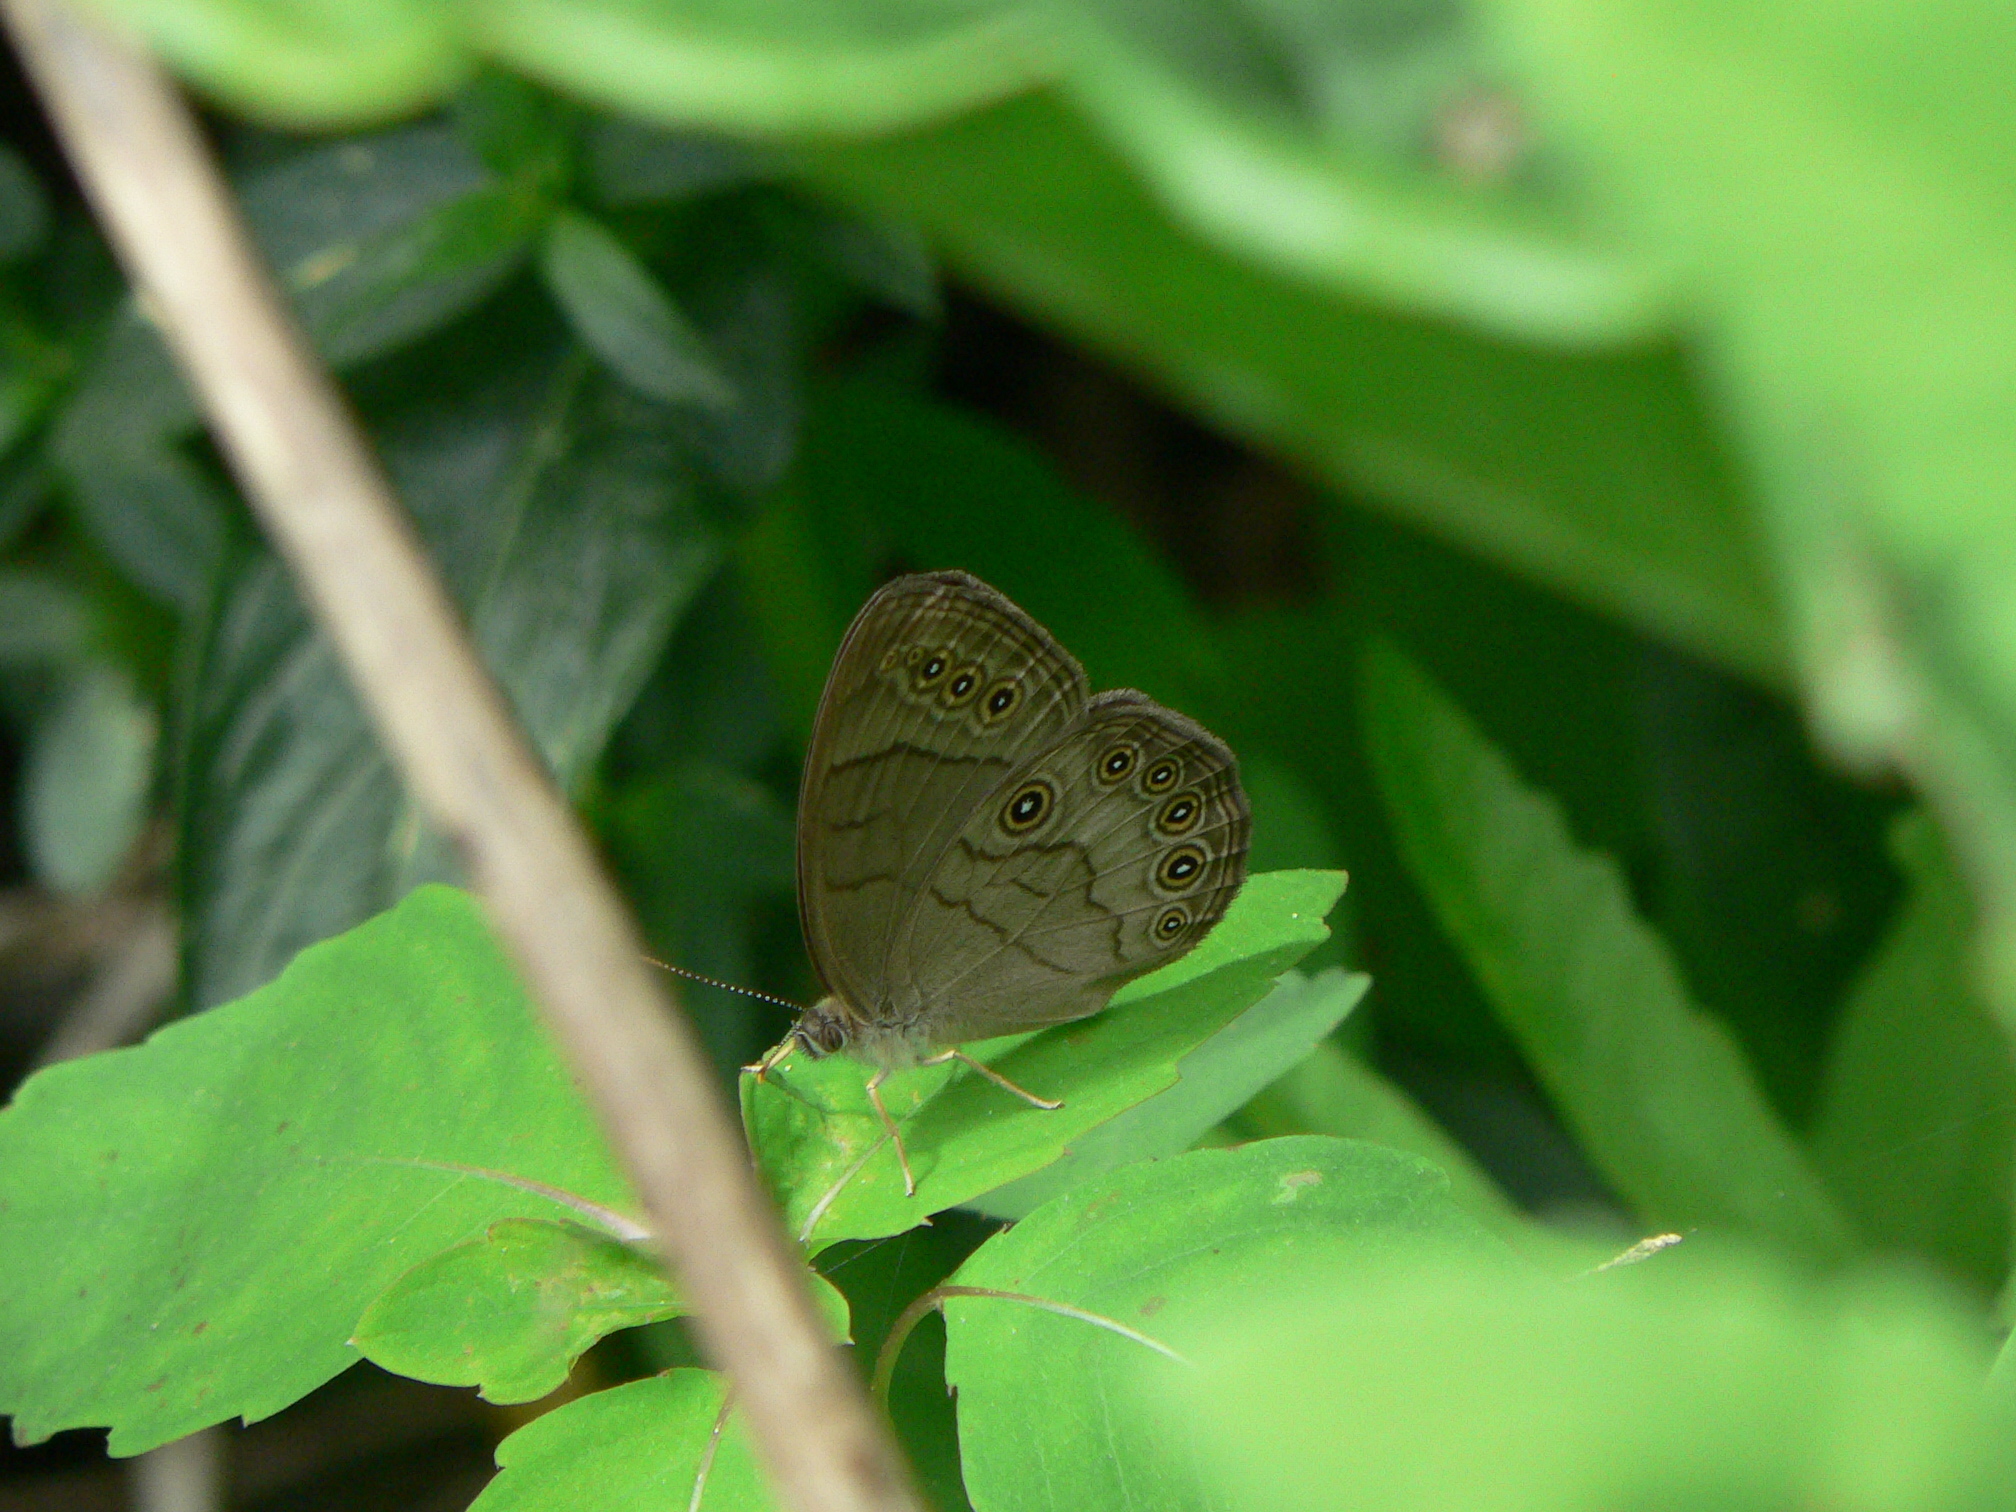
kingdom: Animalia
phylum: Arthropoda
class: Insecta
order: Lepidoptera
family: Nymphalidae
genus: Lethe
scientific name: Lethe eurydice
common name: Eyed brown
